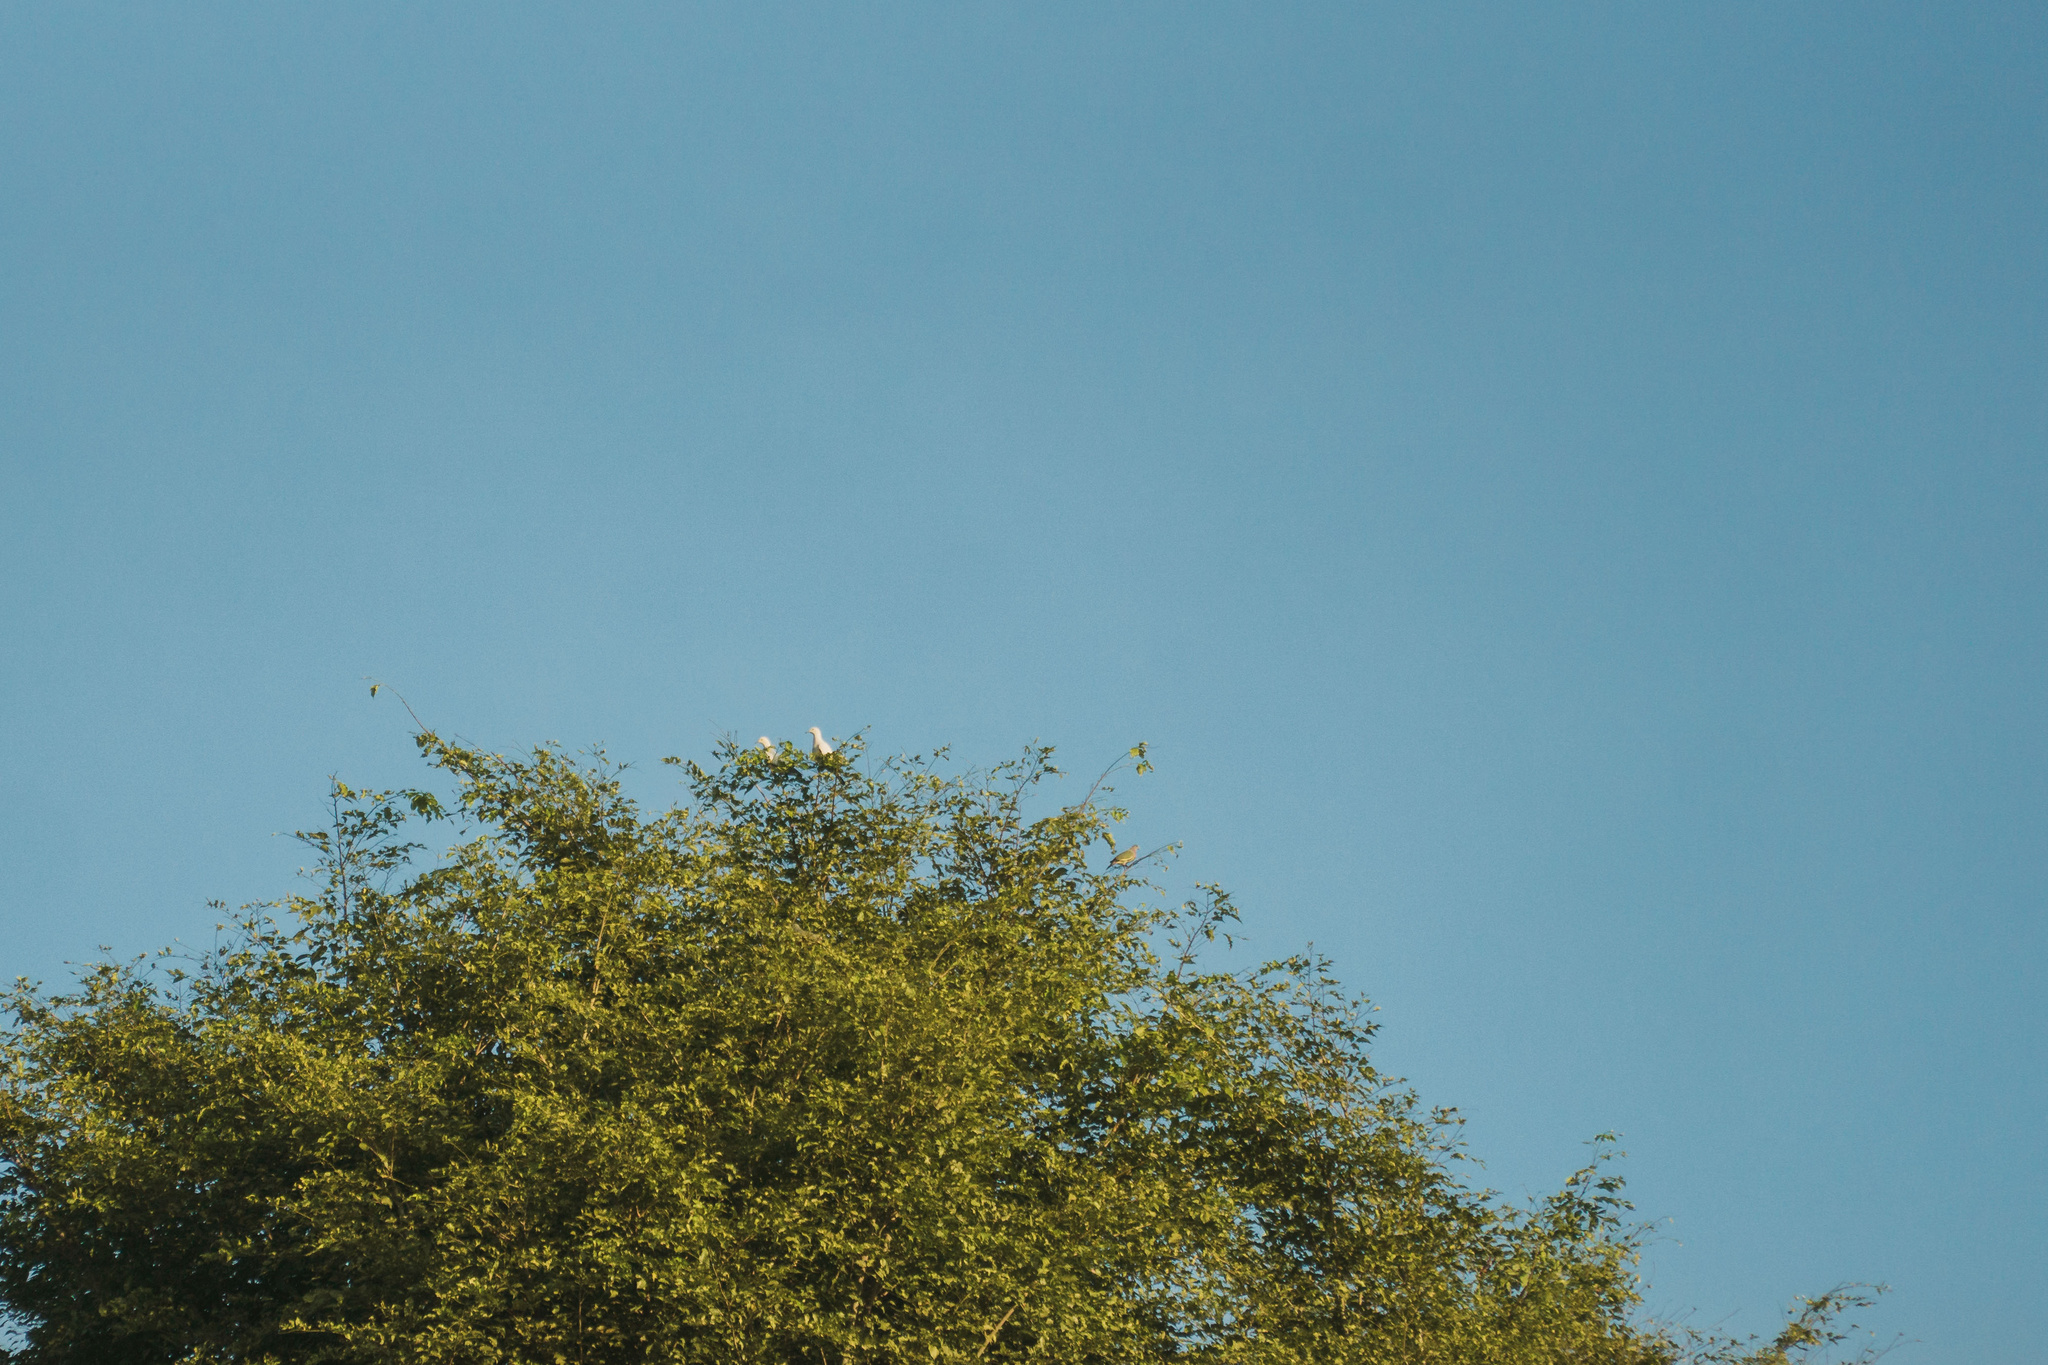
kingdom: Animalia
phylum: Chordata
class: Aves
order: Columbiformes
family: Columbidae
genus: Ducula
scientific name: Ducula bicolor
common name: Pied imperial pigeon
